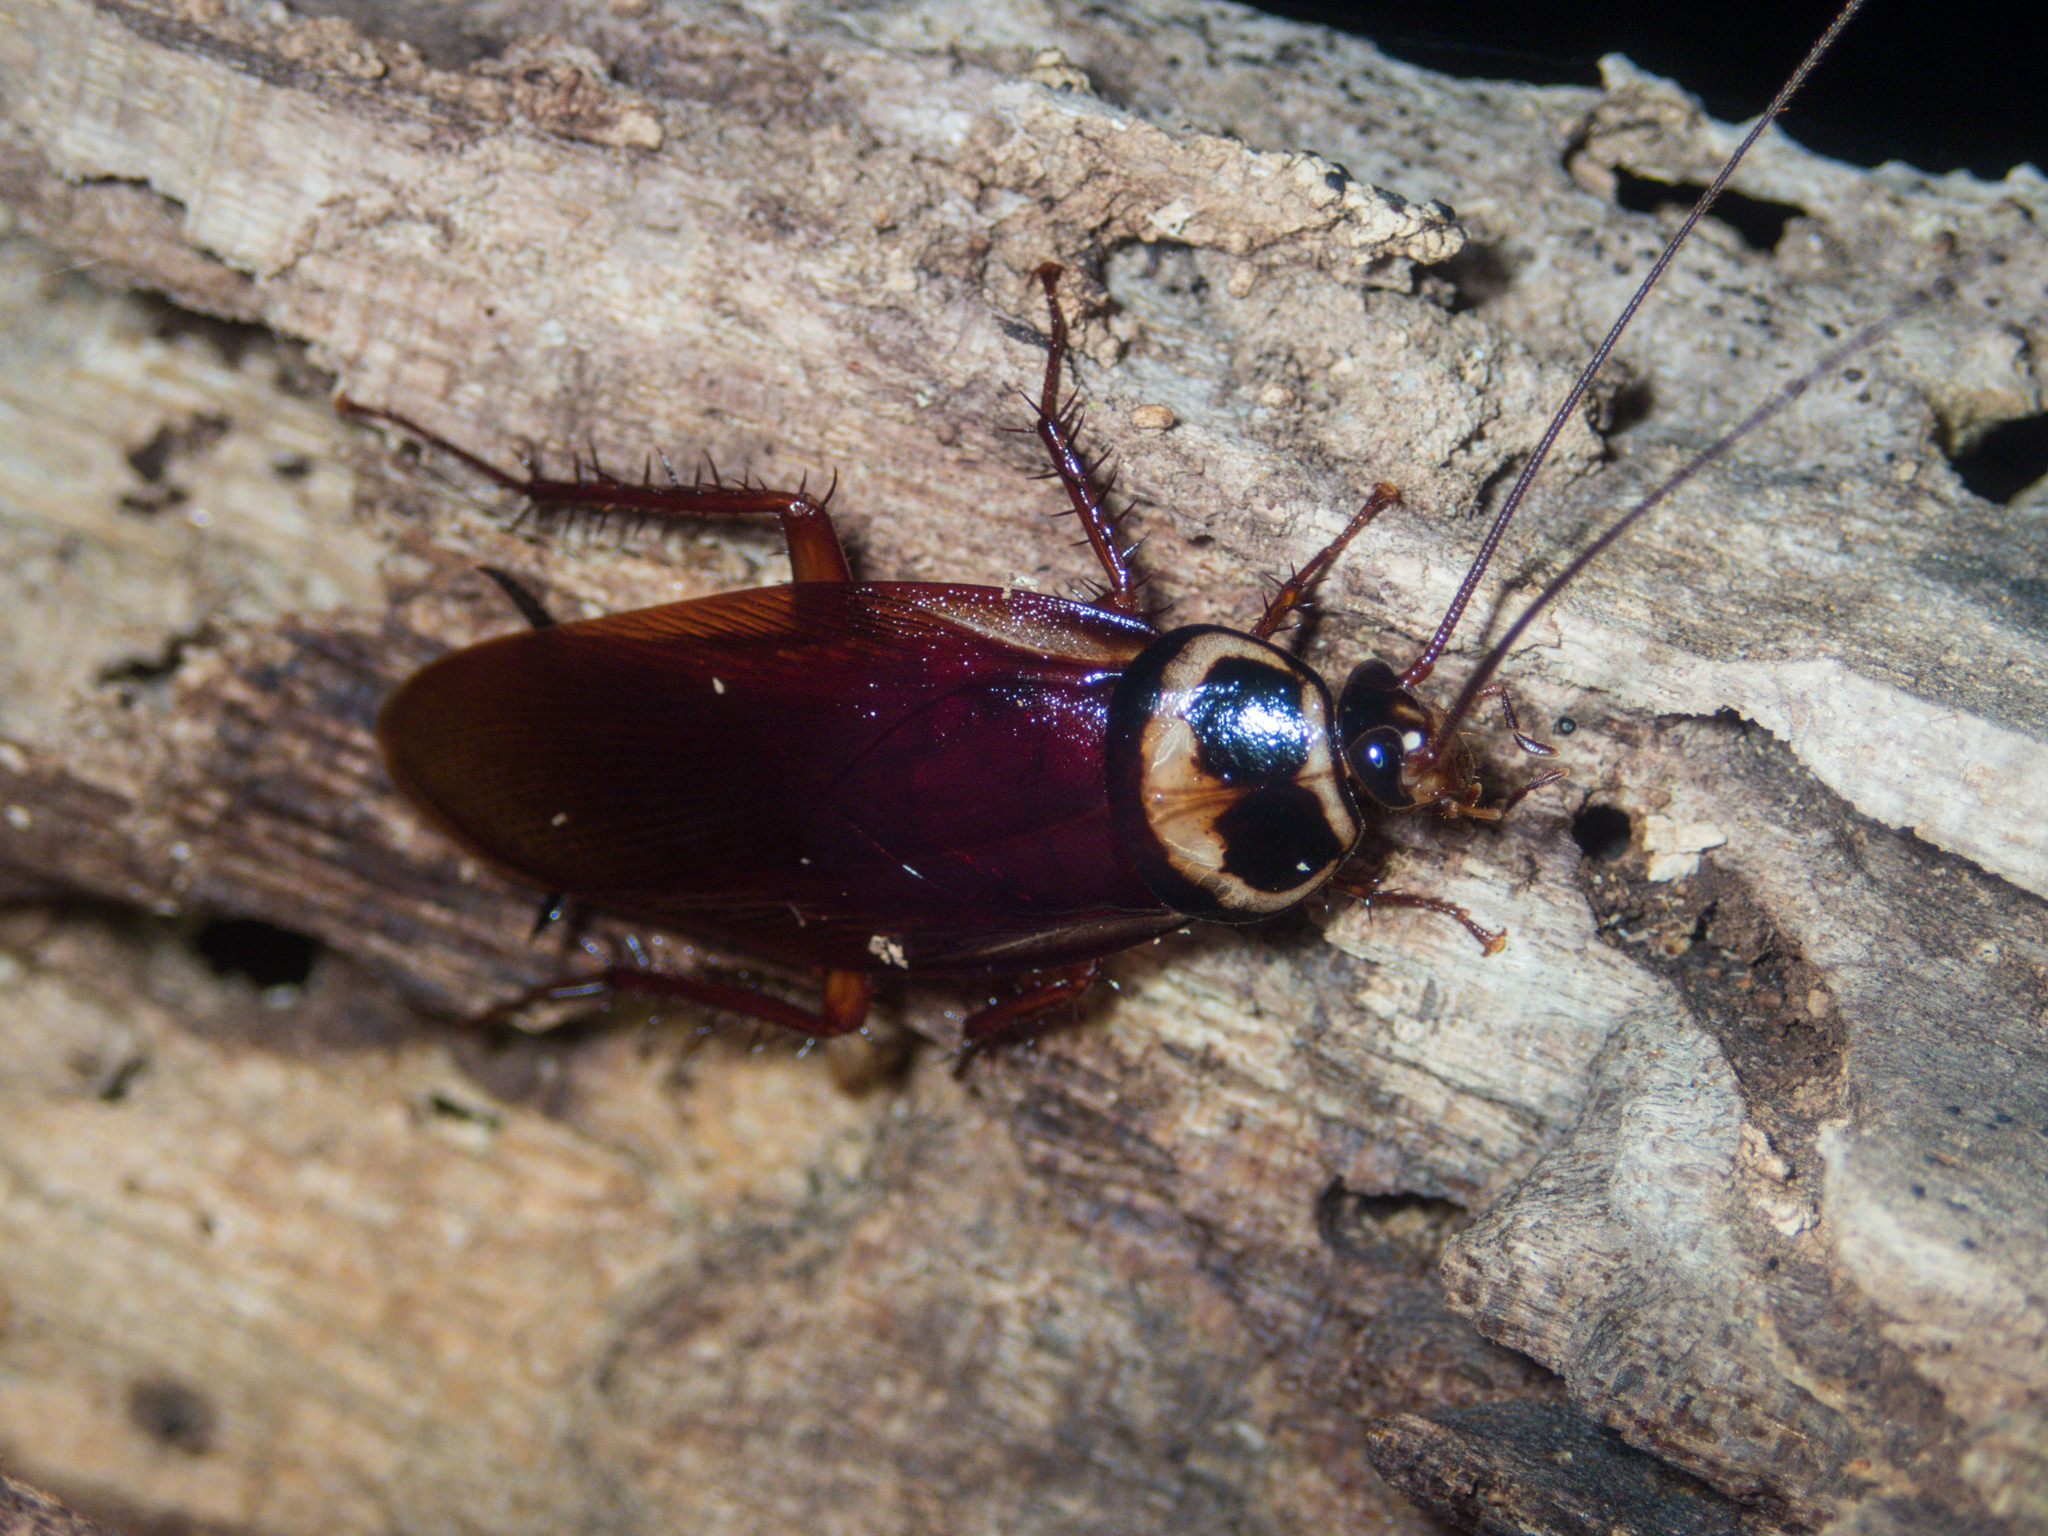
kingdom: Animalia
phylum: Arthropoda
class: Insecta
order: Blattodea
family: Blattidae
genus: Periplaneta
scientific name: Periplaneta australasiae
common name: Australian cockroach
